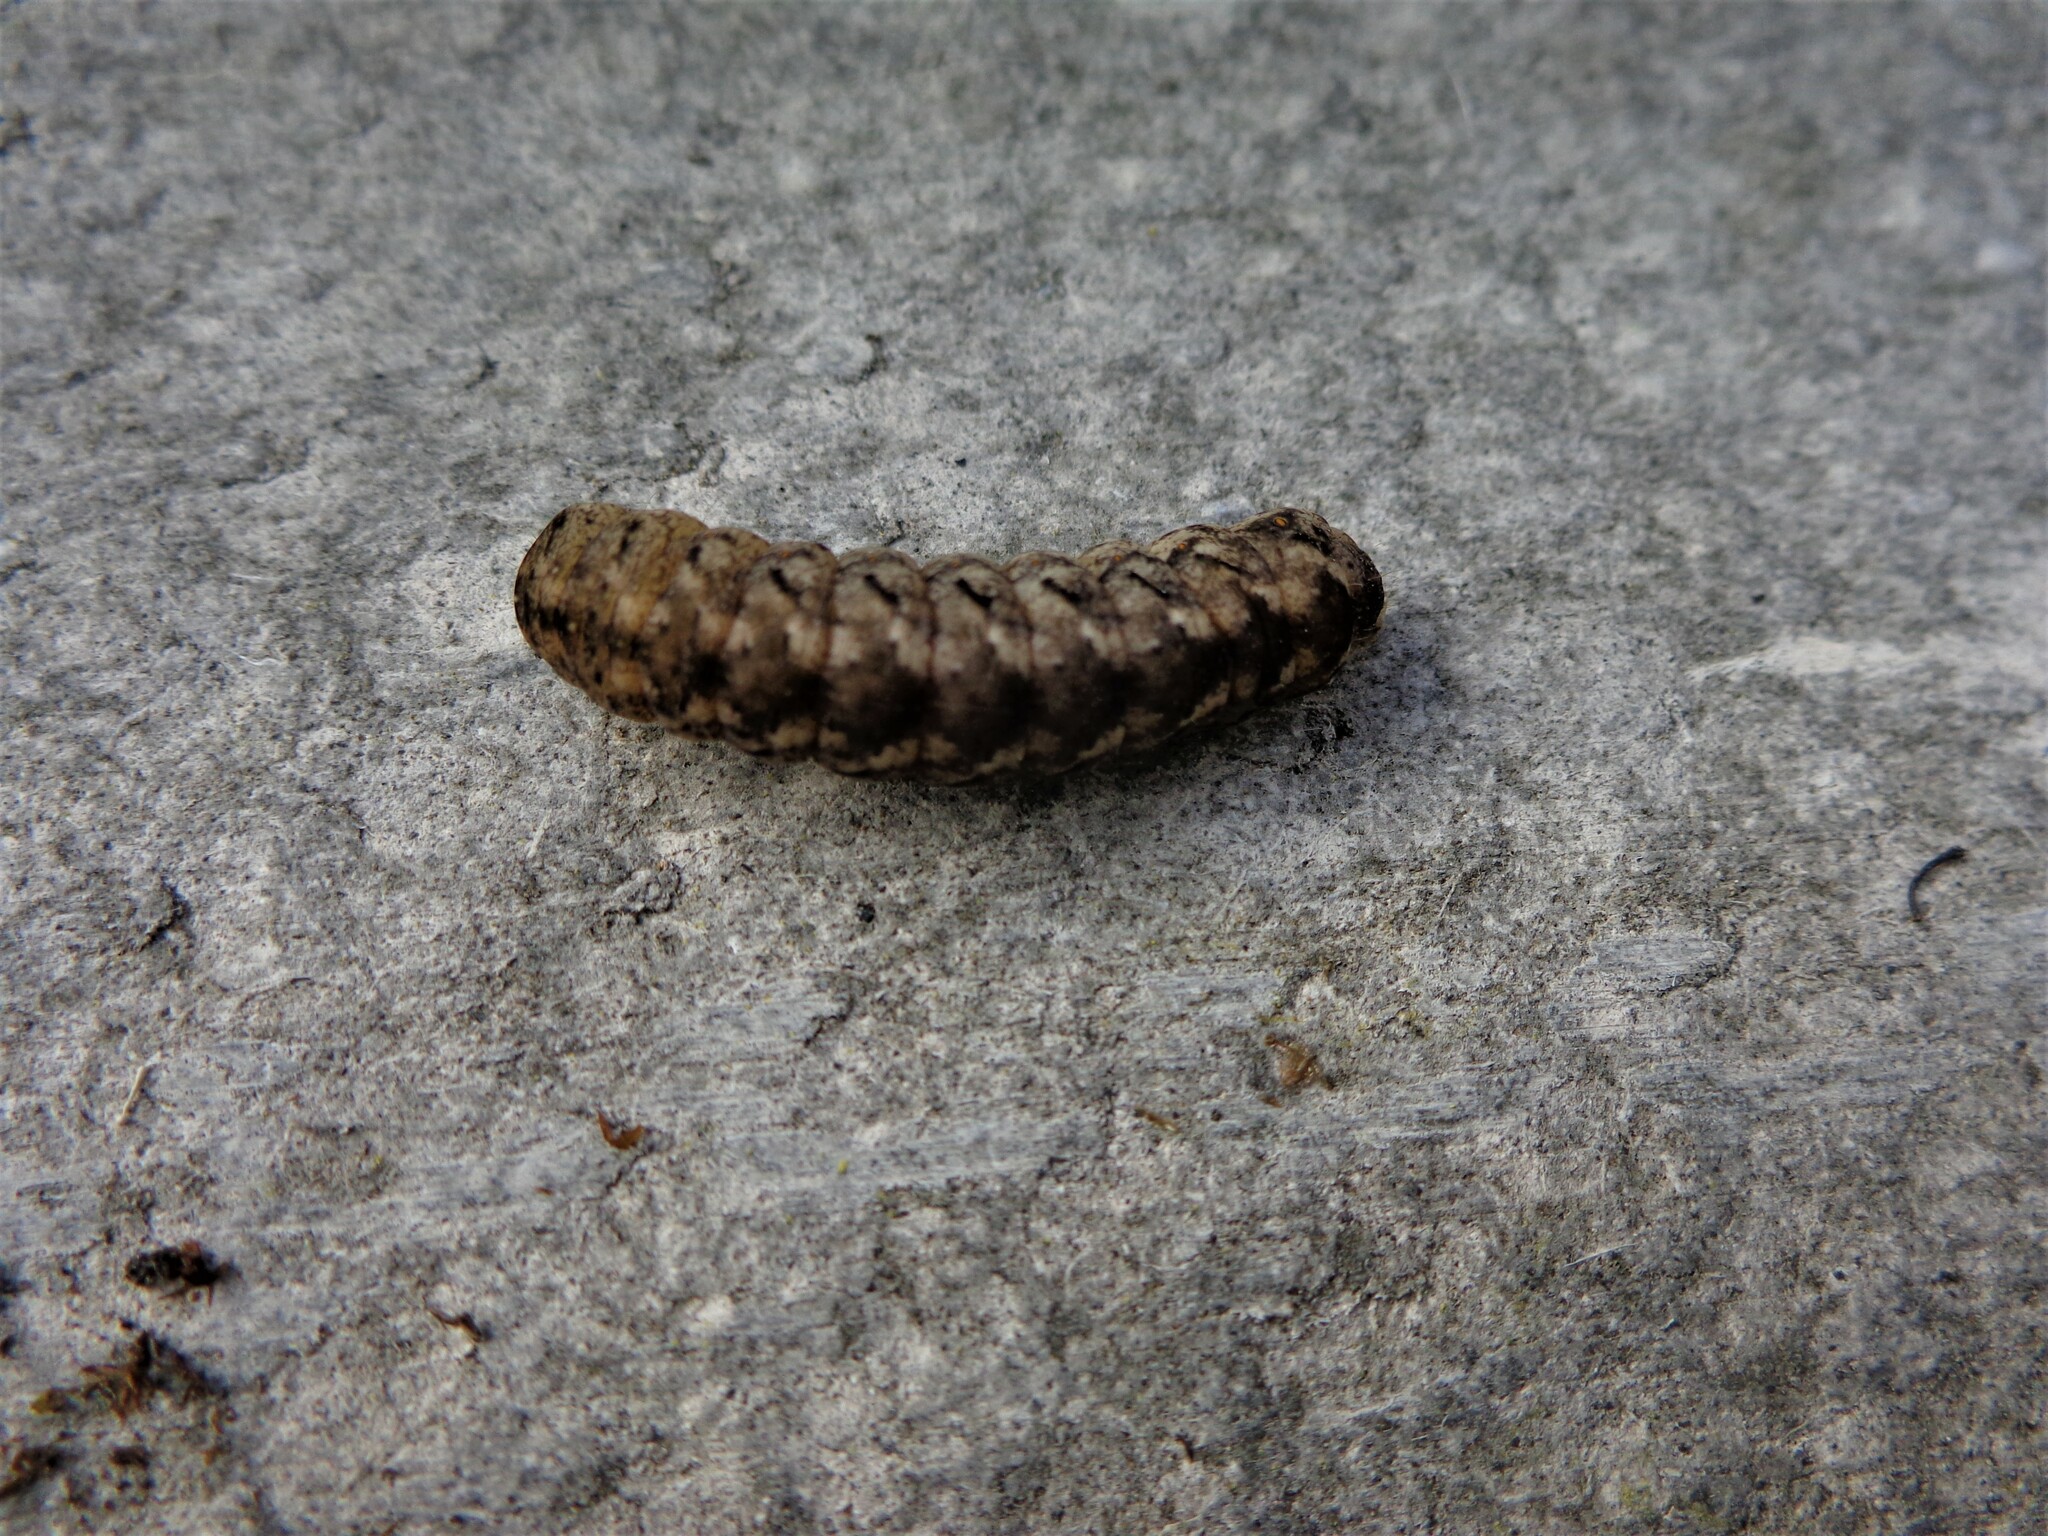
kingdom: Animalia
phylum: Arthropoda
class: Insecta
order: Lepidoptera
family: Noctuidae
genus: Polia
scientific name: Polia nebulosa
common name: Grey arches
